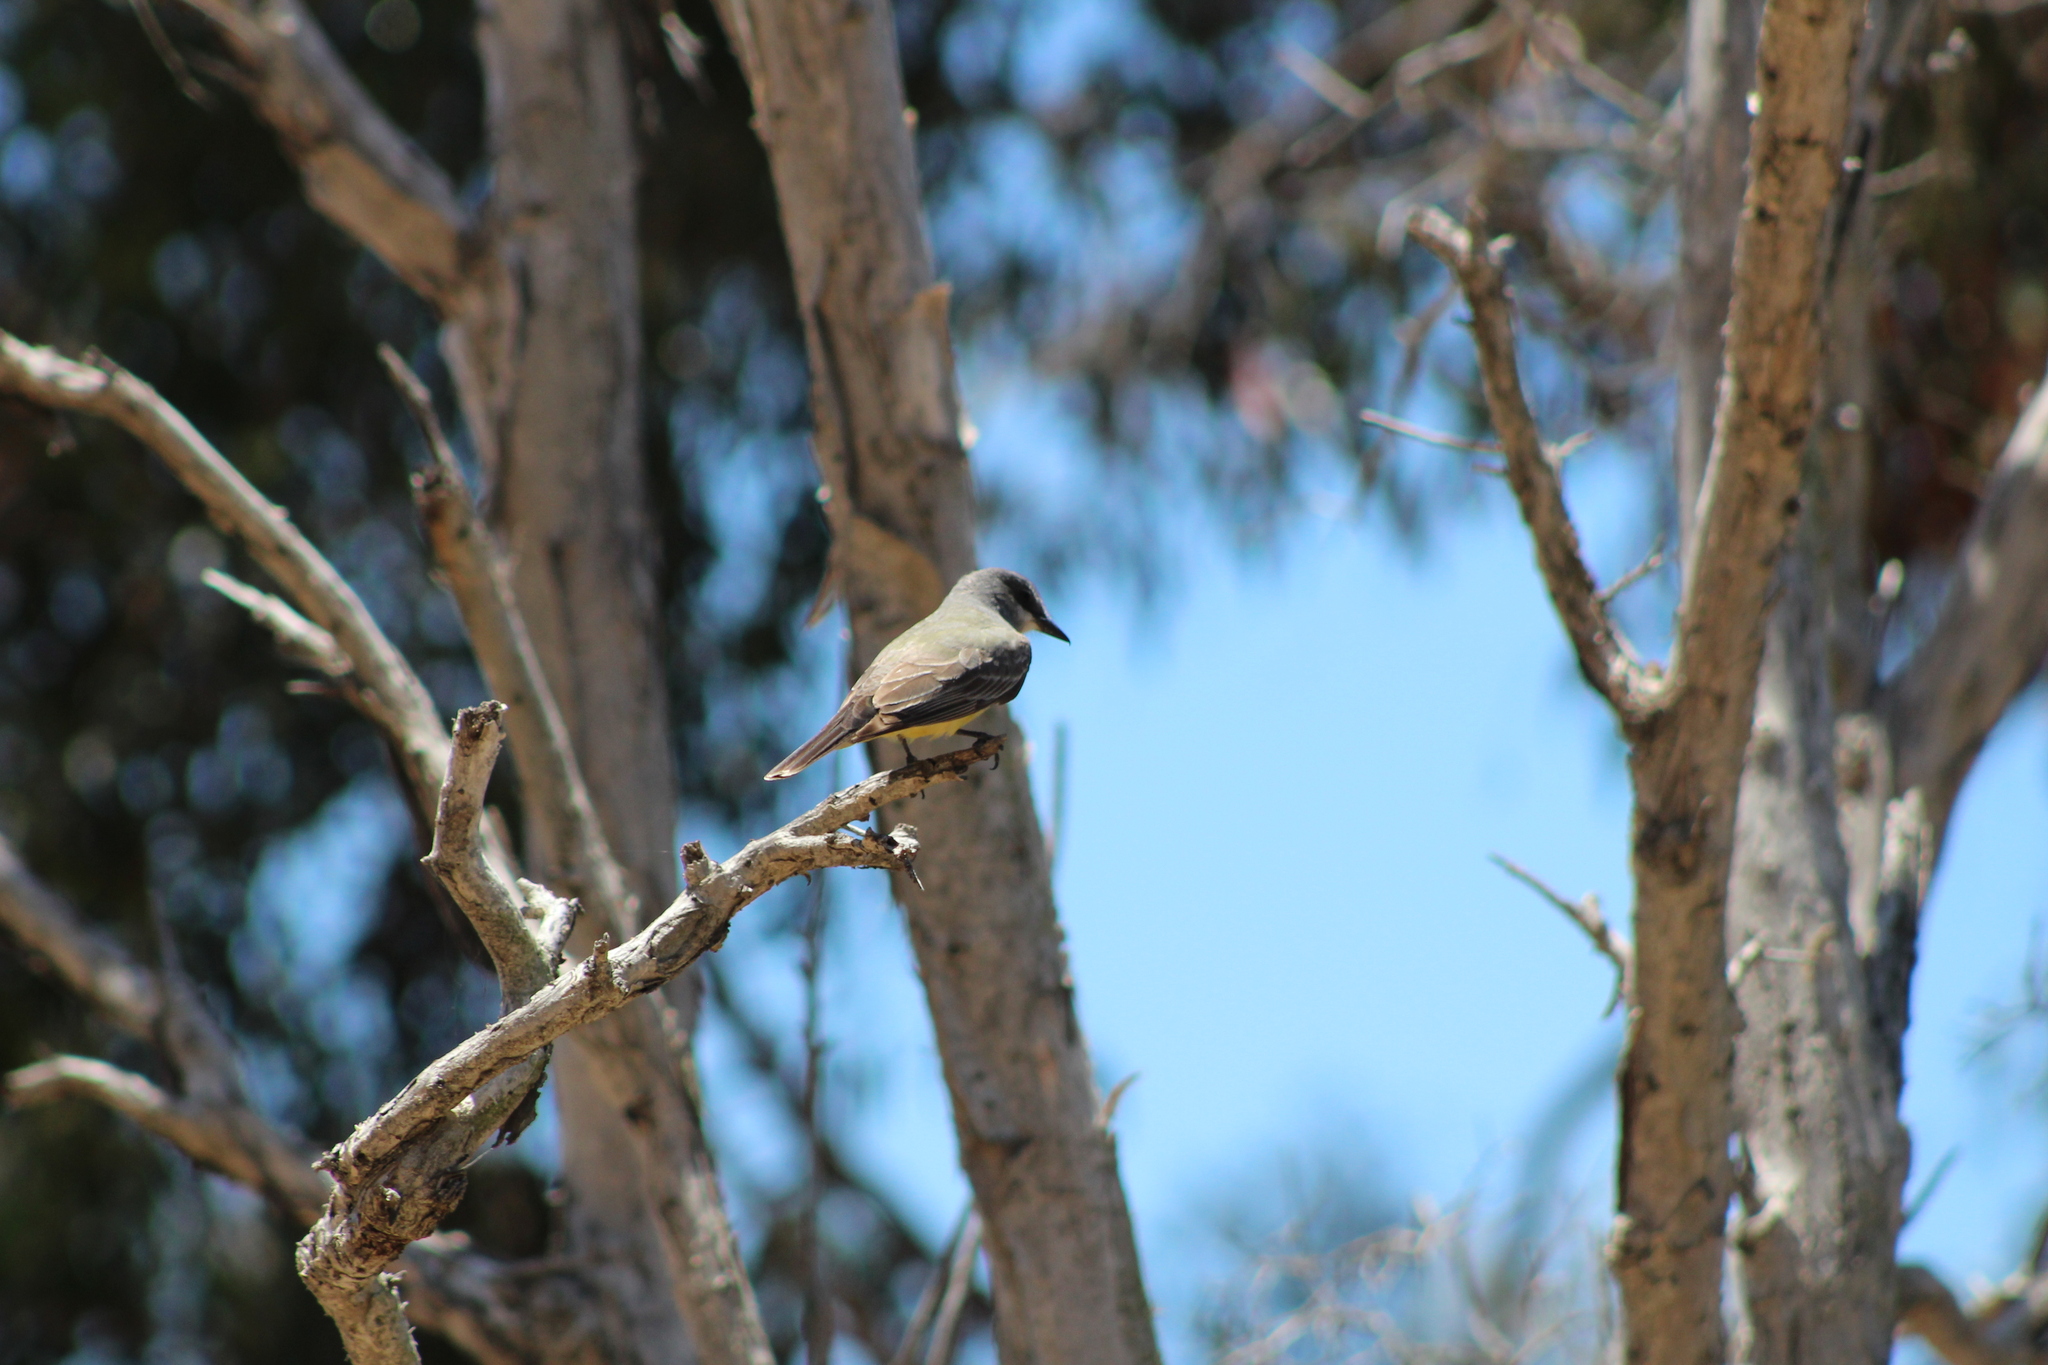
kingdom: Animalia
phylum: Arthropoda
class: Insecta
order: Lepidoptera
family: Pieridae
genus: Pieris
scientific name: Pieris rapae
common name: Small white
